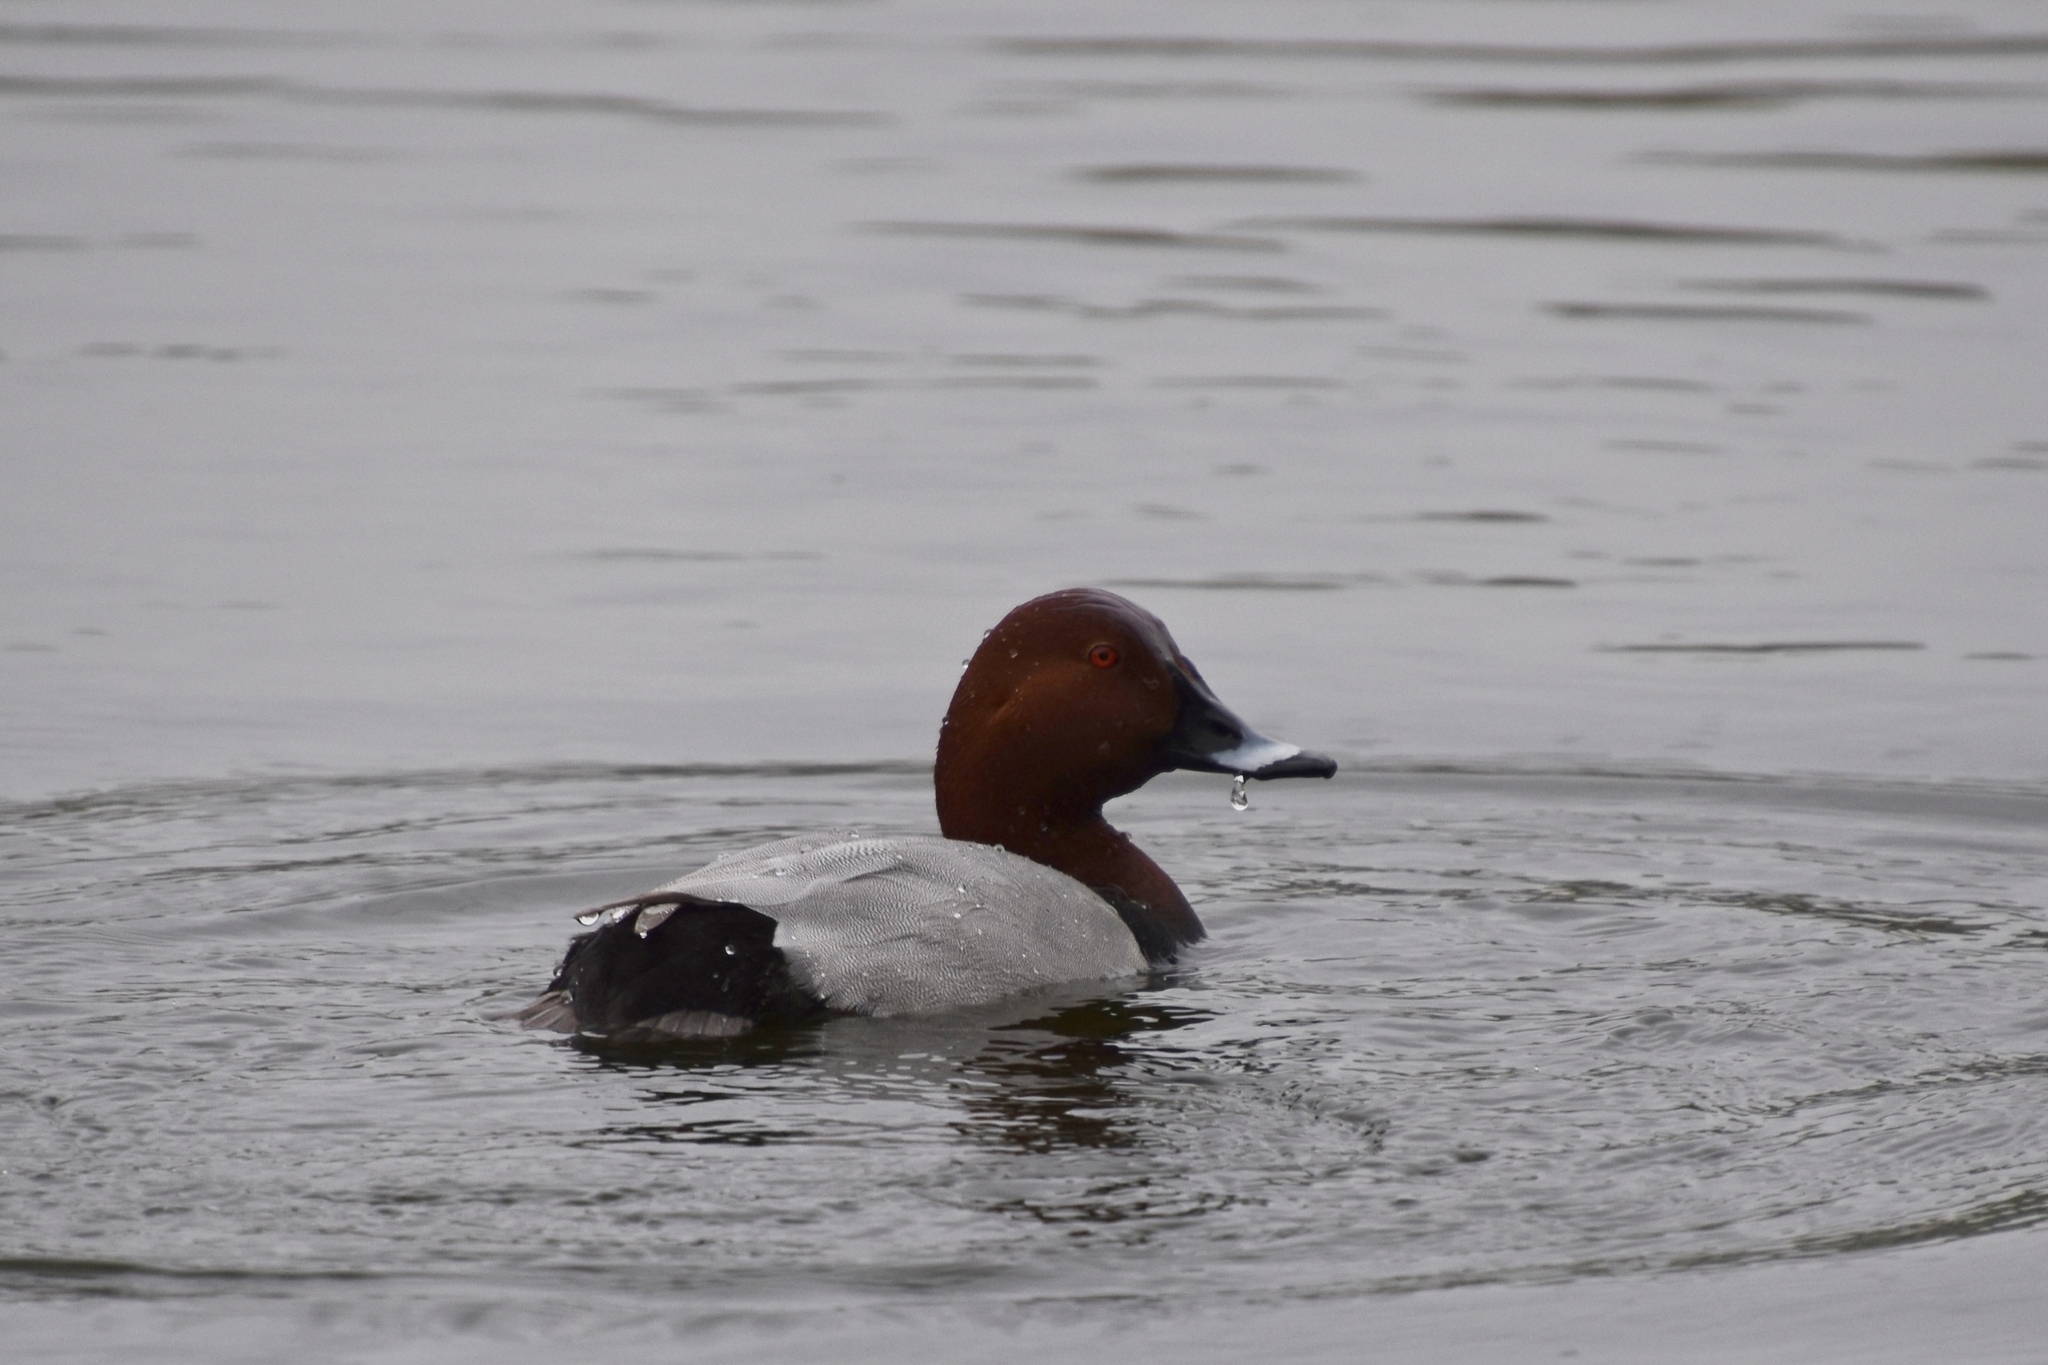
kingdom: Animalia
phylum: Chordata
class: Aves
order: Anseriformes
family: Anatidae
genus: Aythya
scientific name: Aythya ferina
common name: Common pochard
